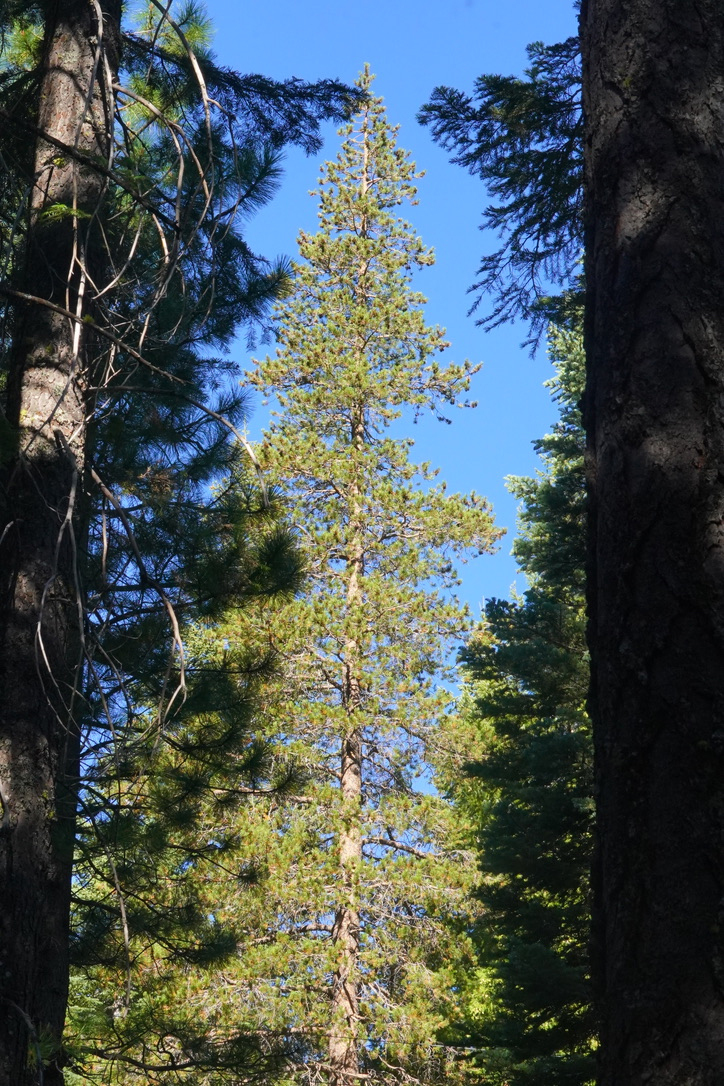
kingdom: Plantae
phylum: Tracheophyta
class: Pinopsida
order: Pinales
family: Pinaceae
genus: Pinus
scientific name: Pinus contorta
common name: Lodgepole pine
